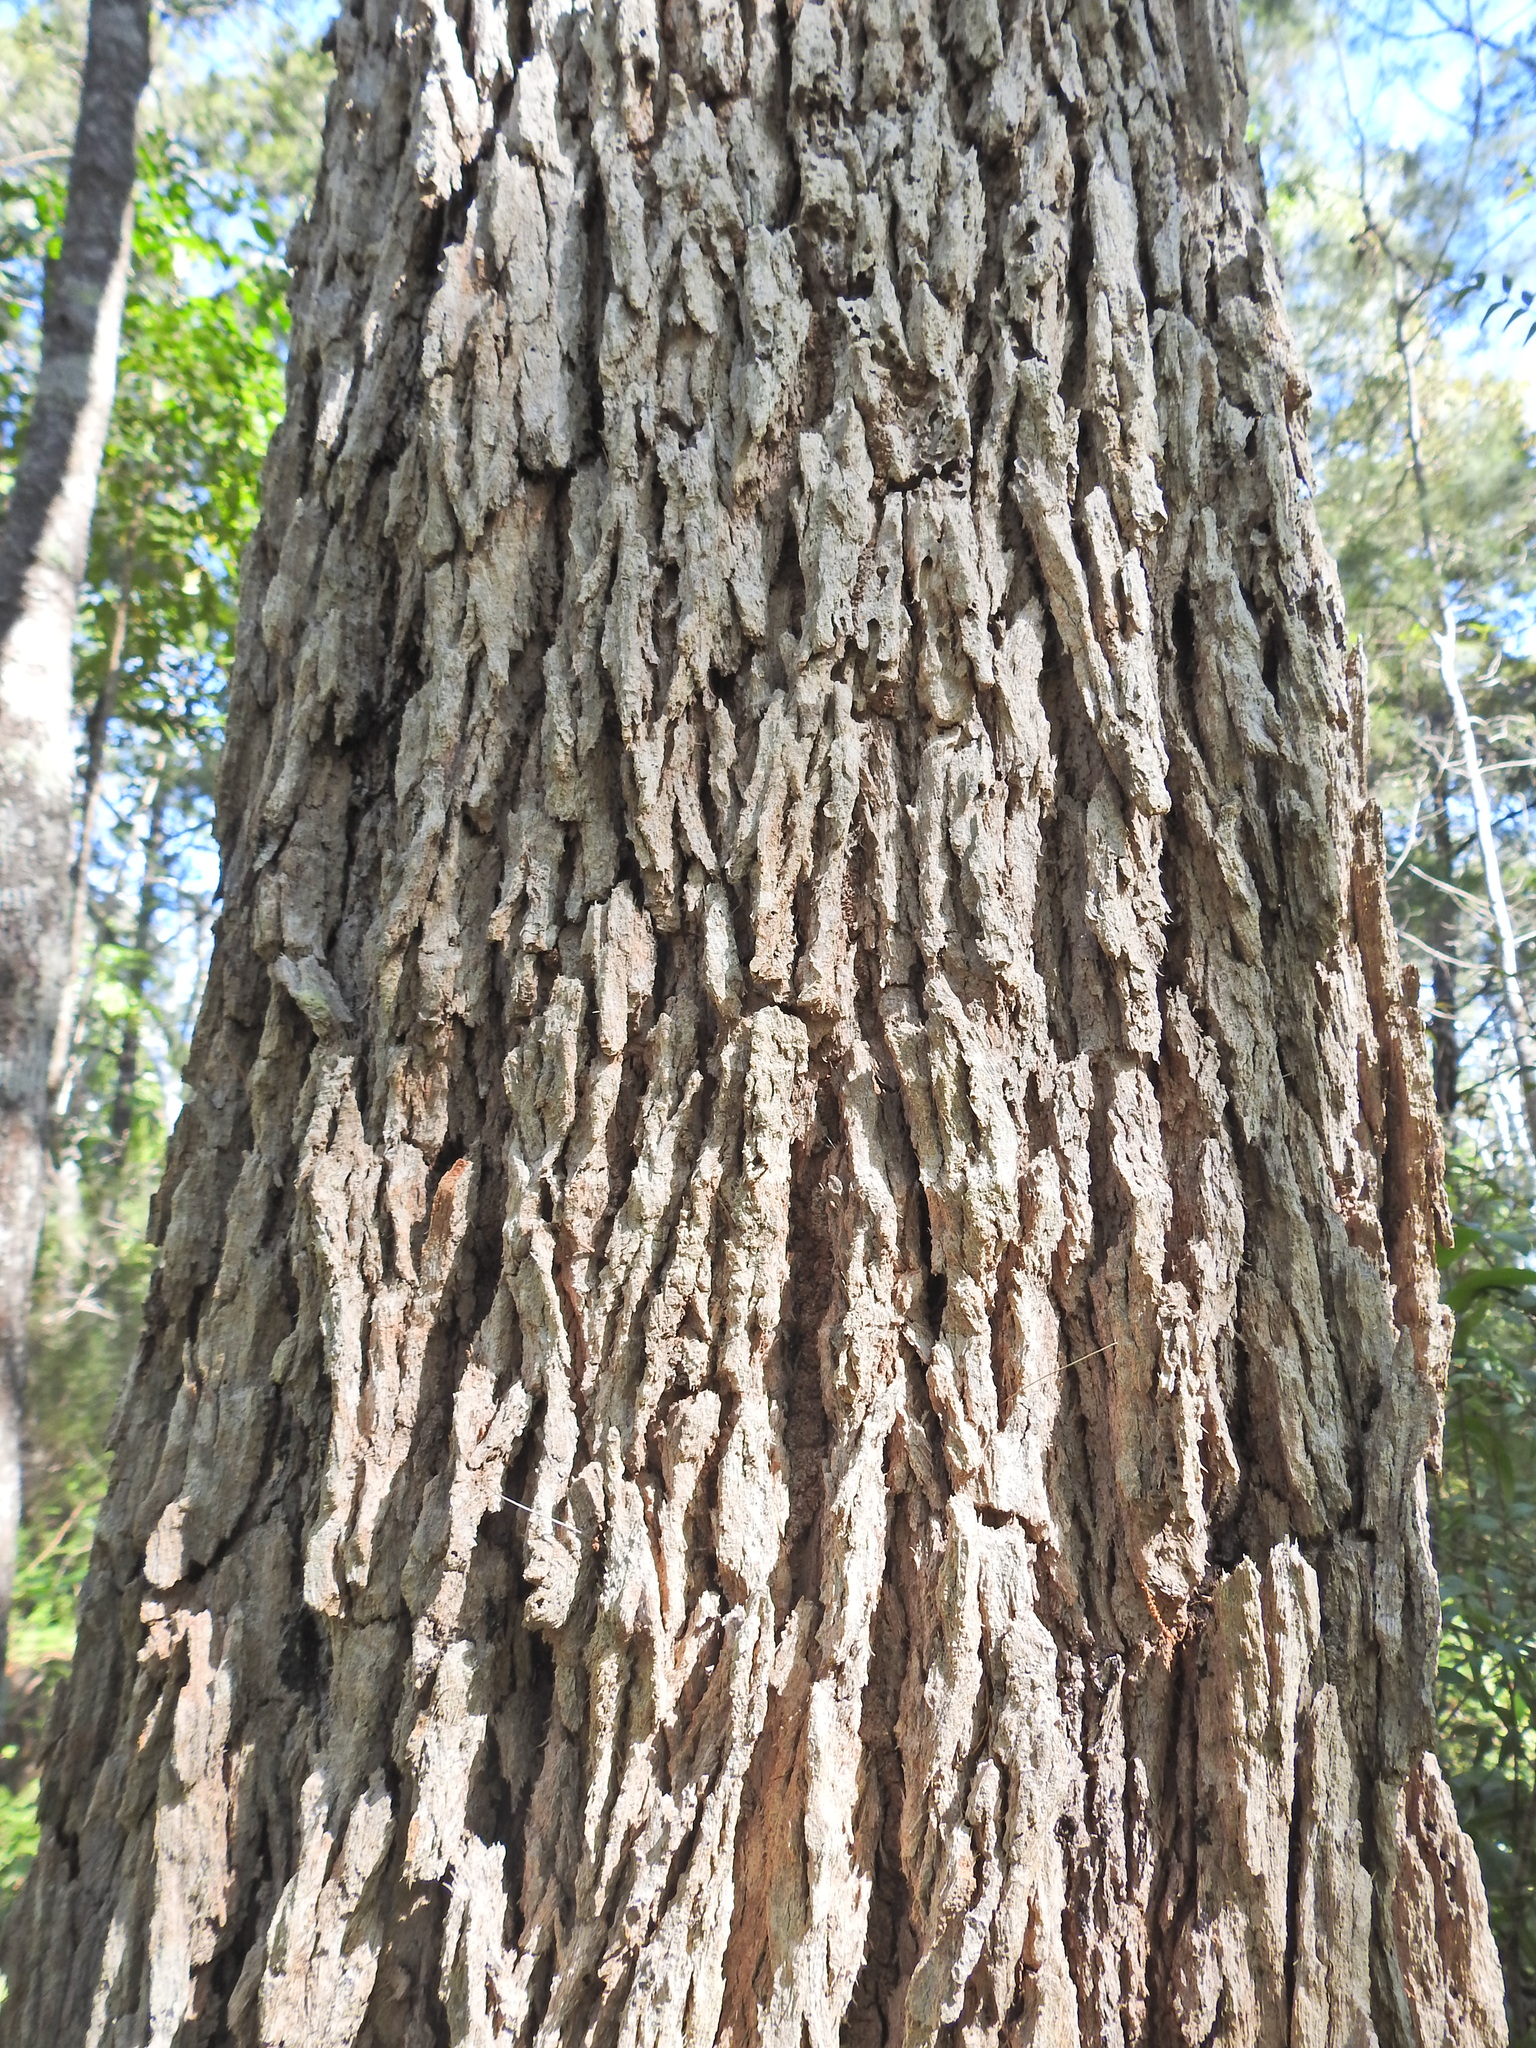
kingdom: Plantae
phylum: Tracheophyta
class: Magnoliopsida
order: Myrtales
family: Myrtaceae
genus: Corymbia
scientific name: Corymbia intermedia
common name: Pink-bloodwood
